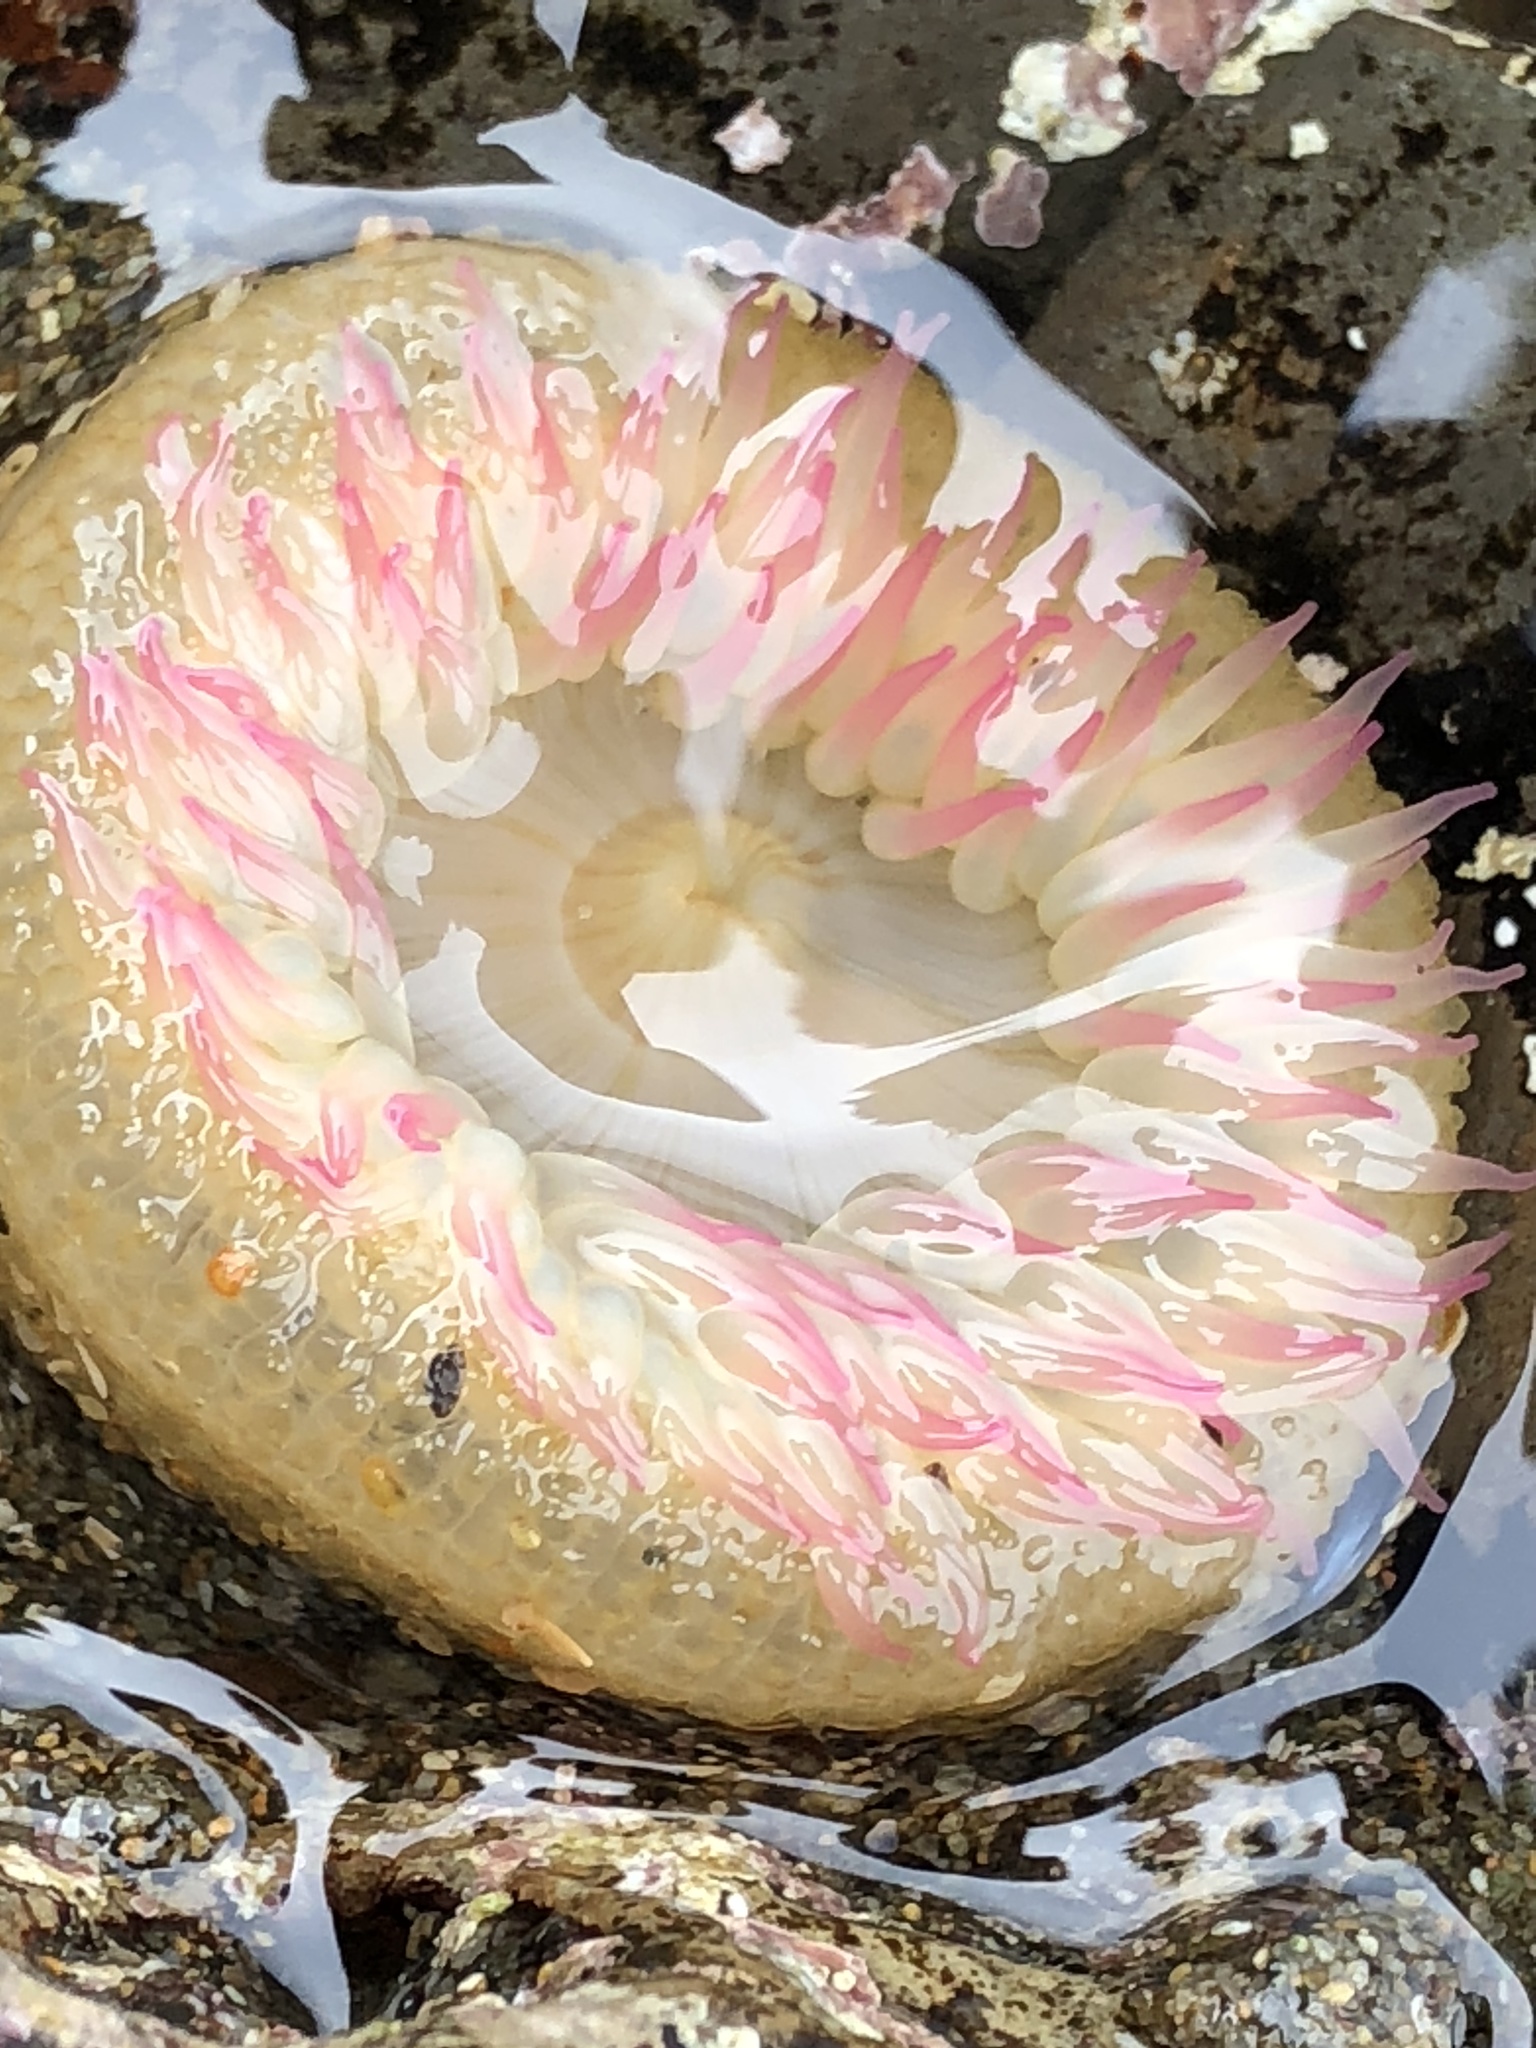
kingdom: Animalia
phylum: Cnidaria
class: Anthozoa
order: Actiniaria
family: Actiniidae
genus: Anthopleura
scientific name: Anthopleura elegantissima
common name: Clonal anemone
